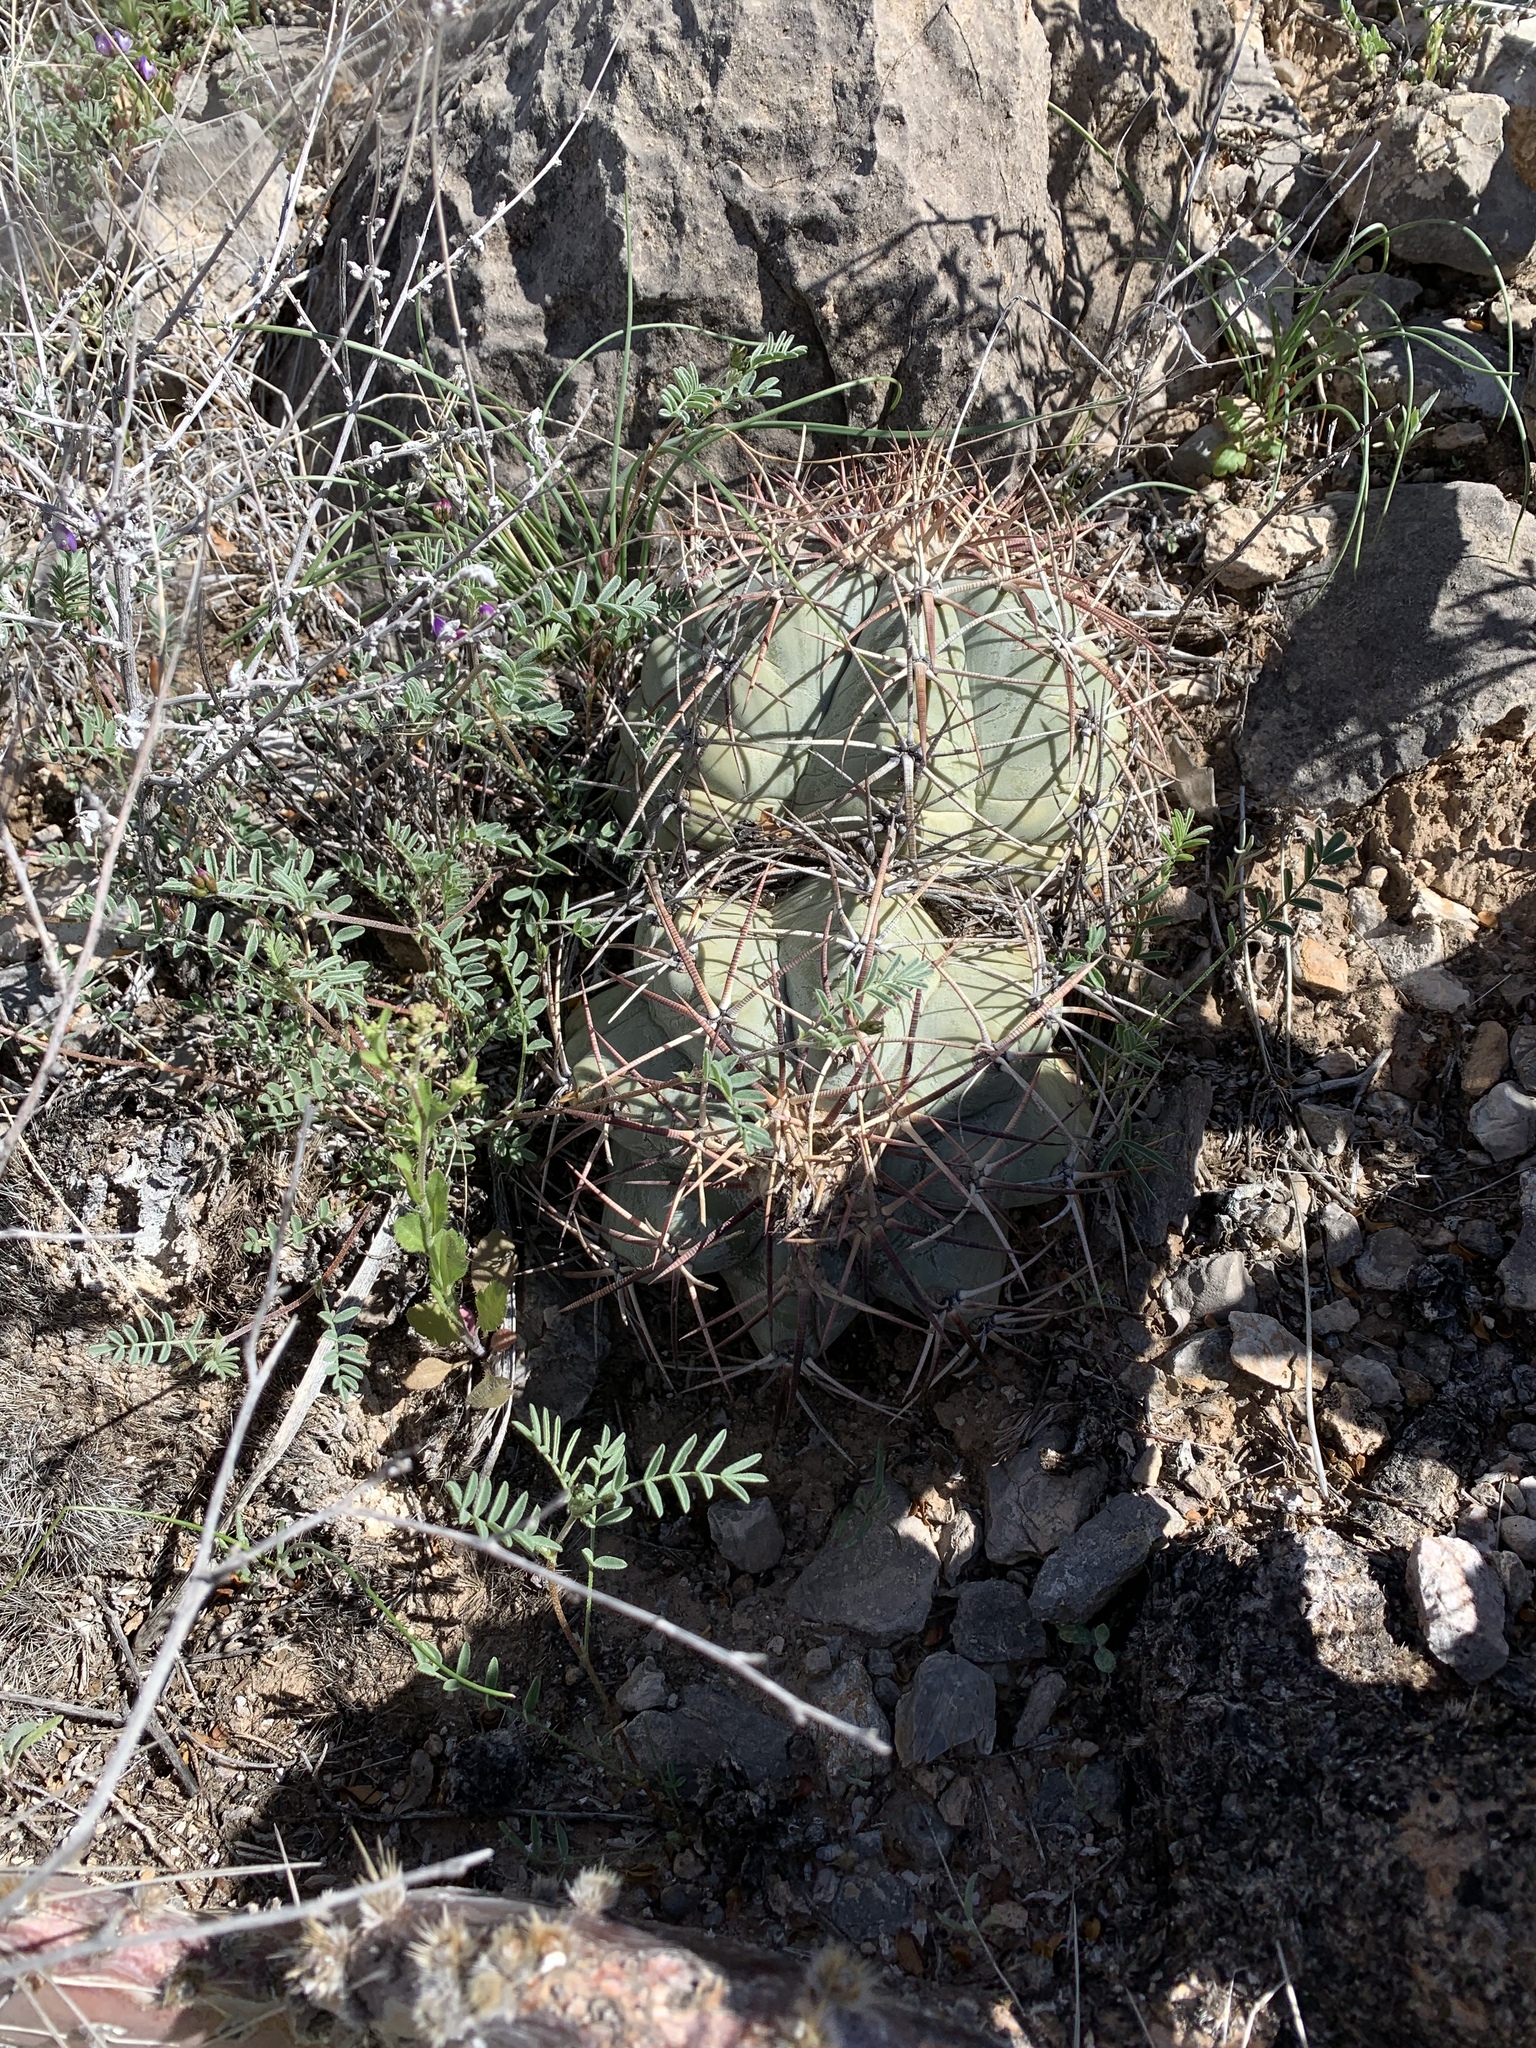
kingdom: Plantae
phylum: Tracheophyta
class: Magnoliopsida
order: Caryophyllales
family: Cactaceae
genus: Echinocactus
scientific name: Echinocactus horizonthalonius
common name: Devilshead
